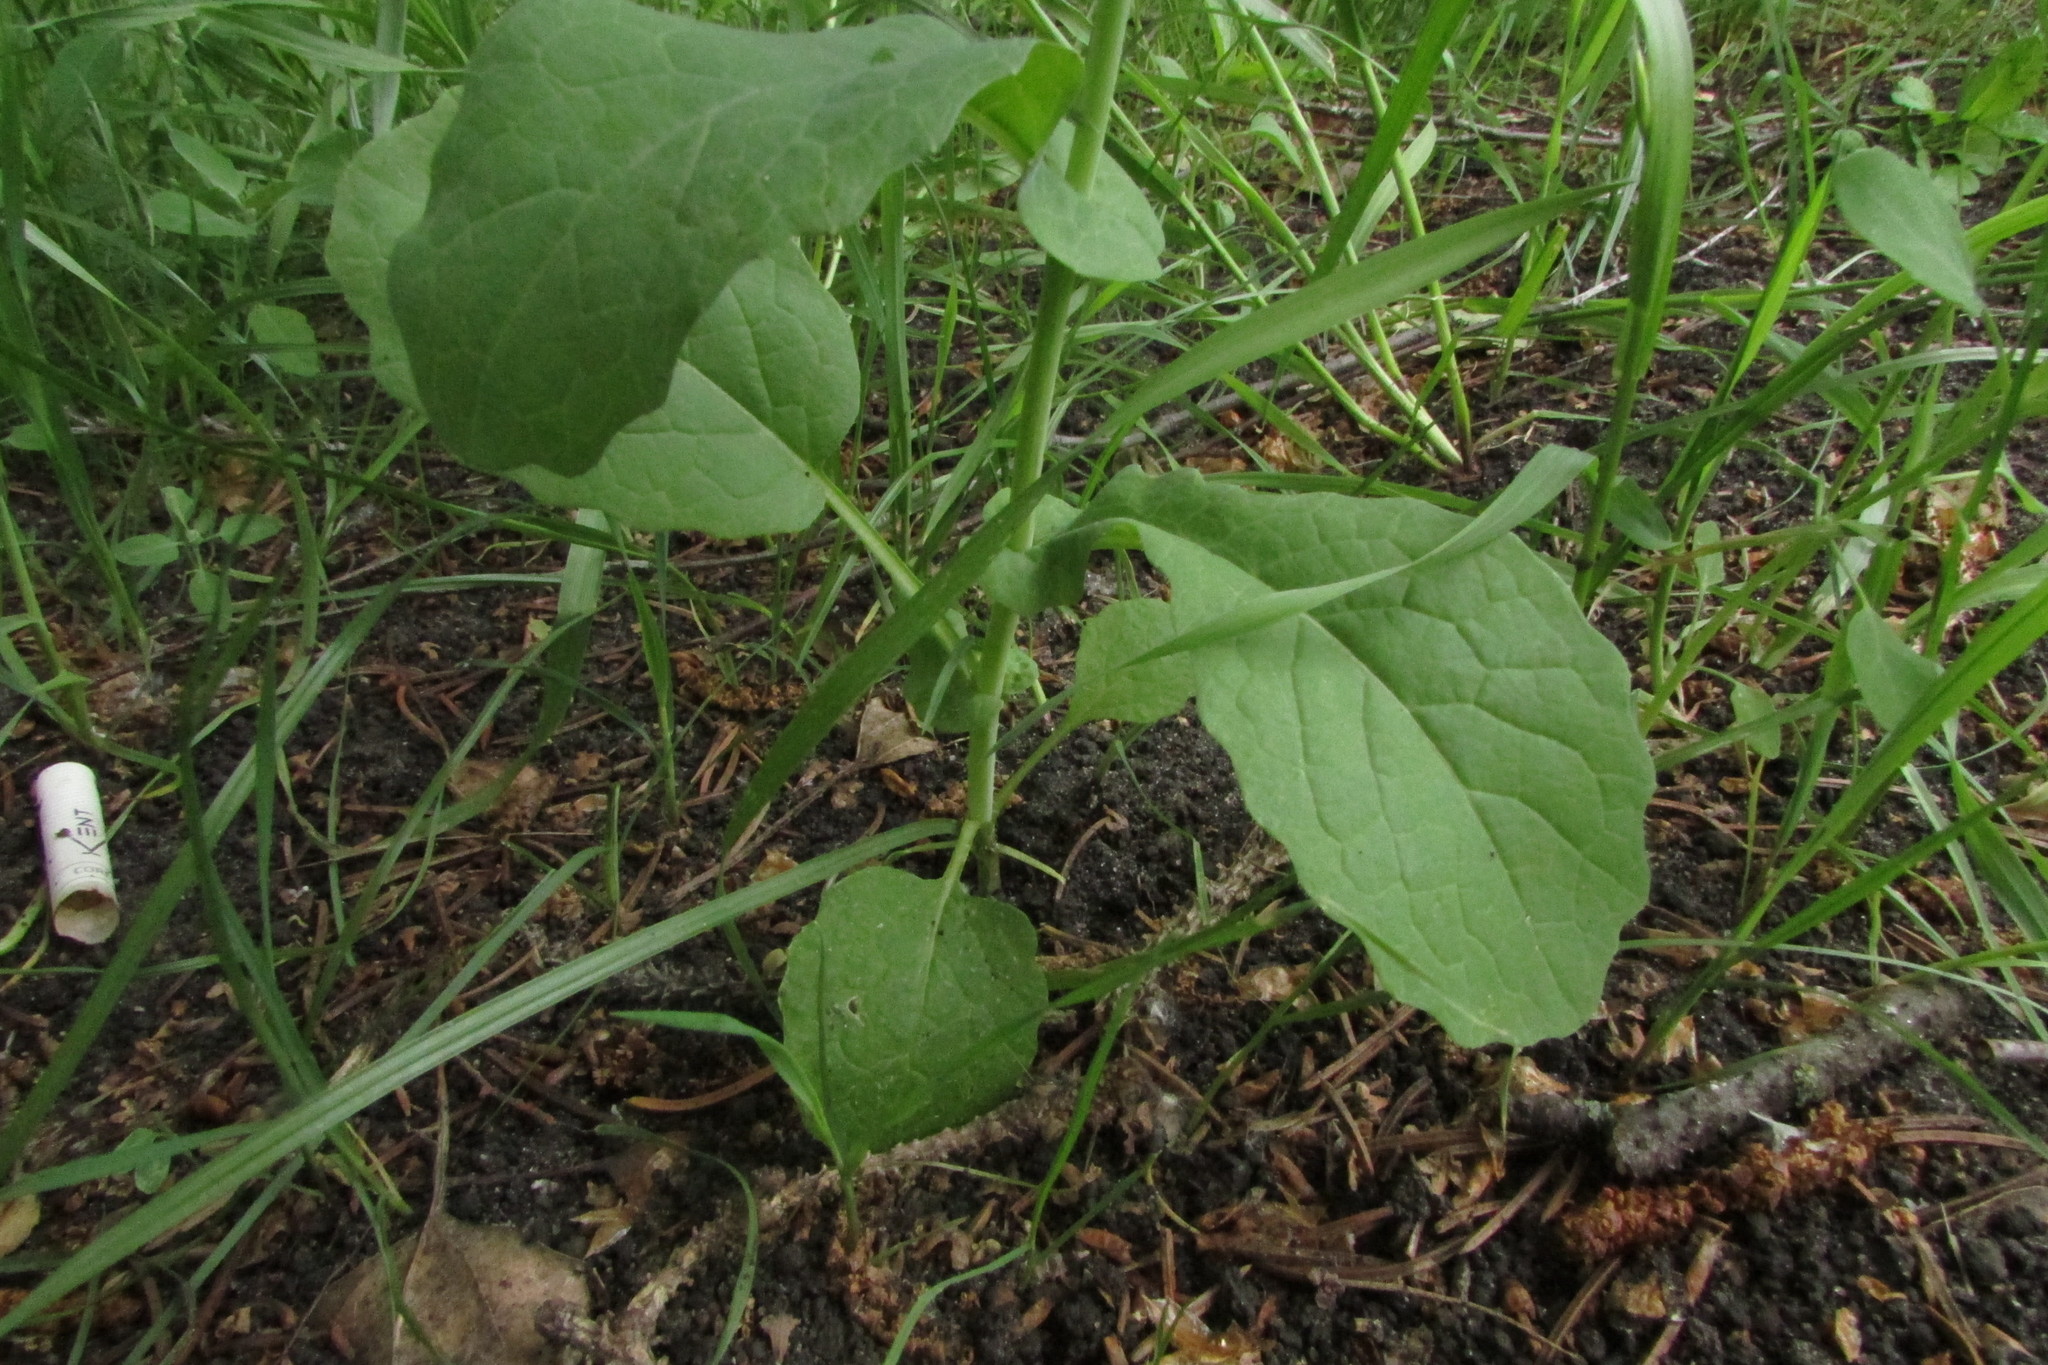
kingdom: Plantae
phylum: Tracheophyta
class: Magnoliopsida
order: Brassicales
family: Brassicaceae
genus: Brassica
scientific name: Brassica rapa
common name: Field mustard
